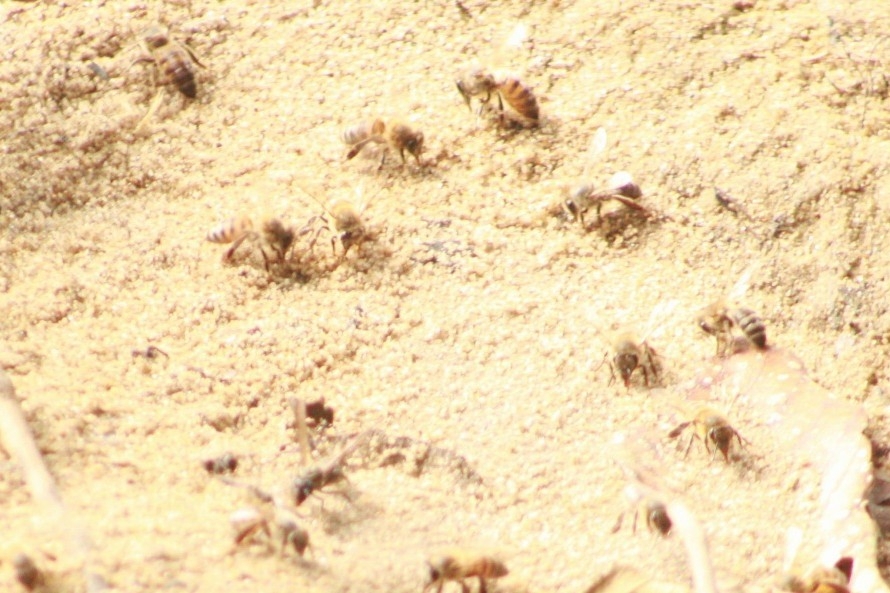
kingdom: Animalia
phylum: Arthropoda
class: Insecta
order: Hymenoptera
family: Apidae
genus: Apis
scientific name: Apis mellifera
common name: Honey bee
